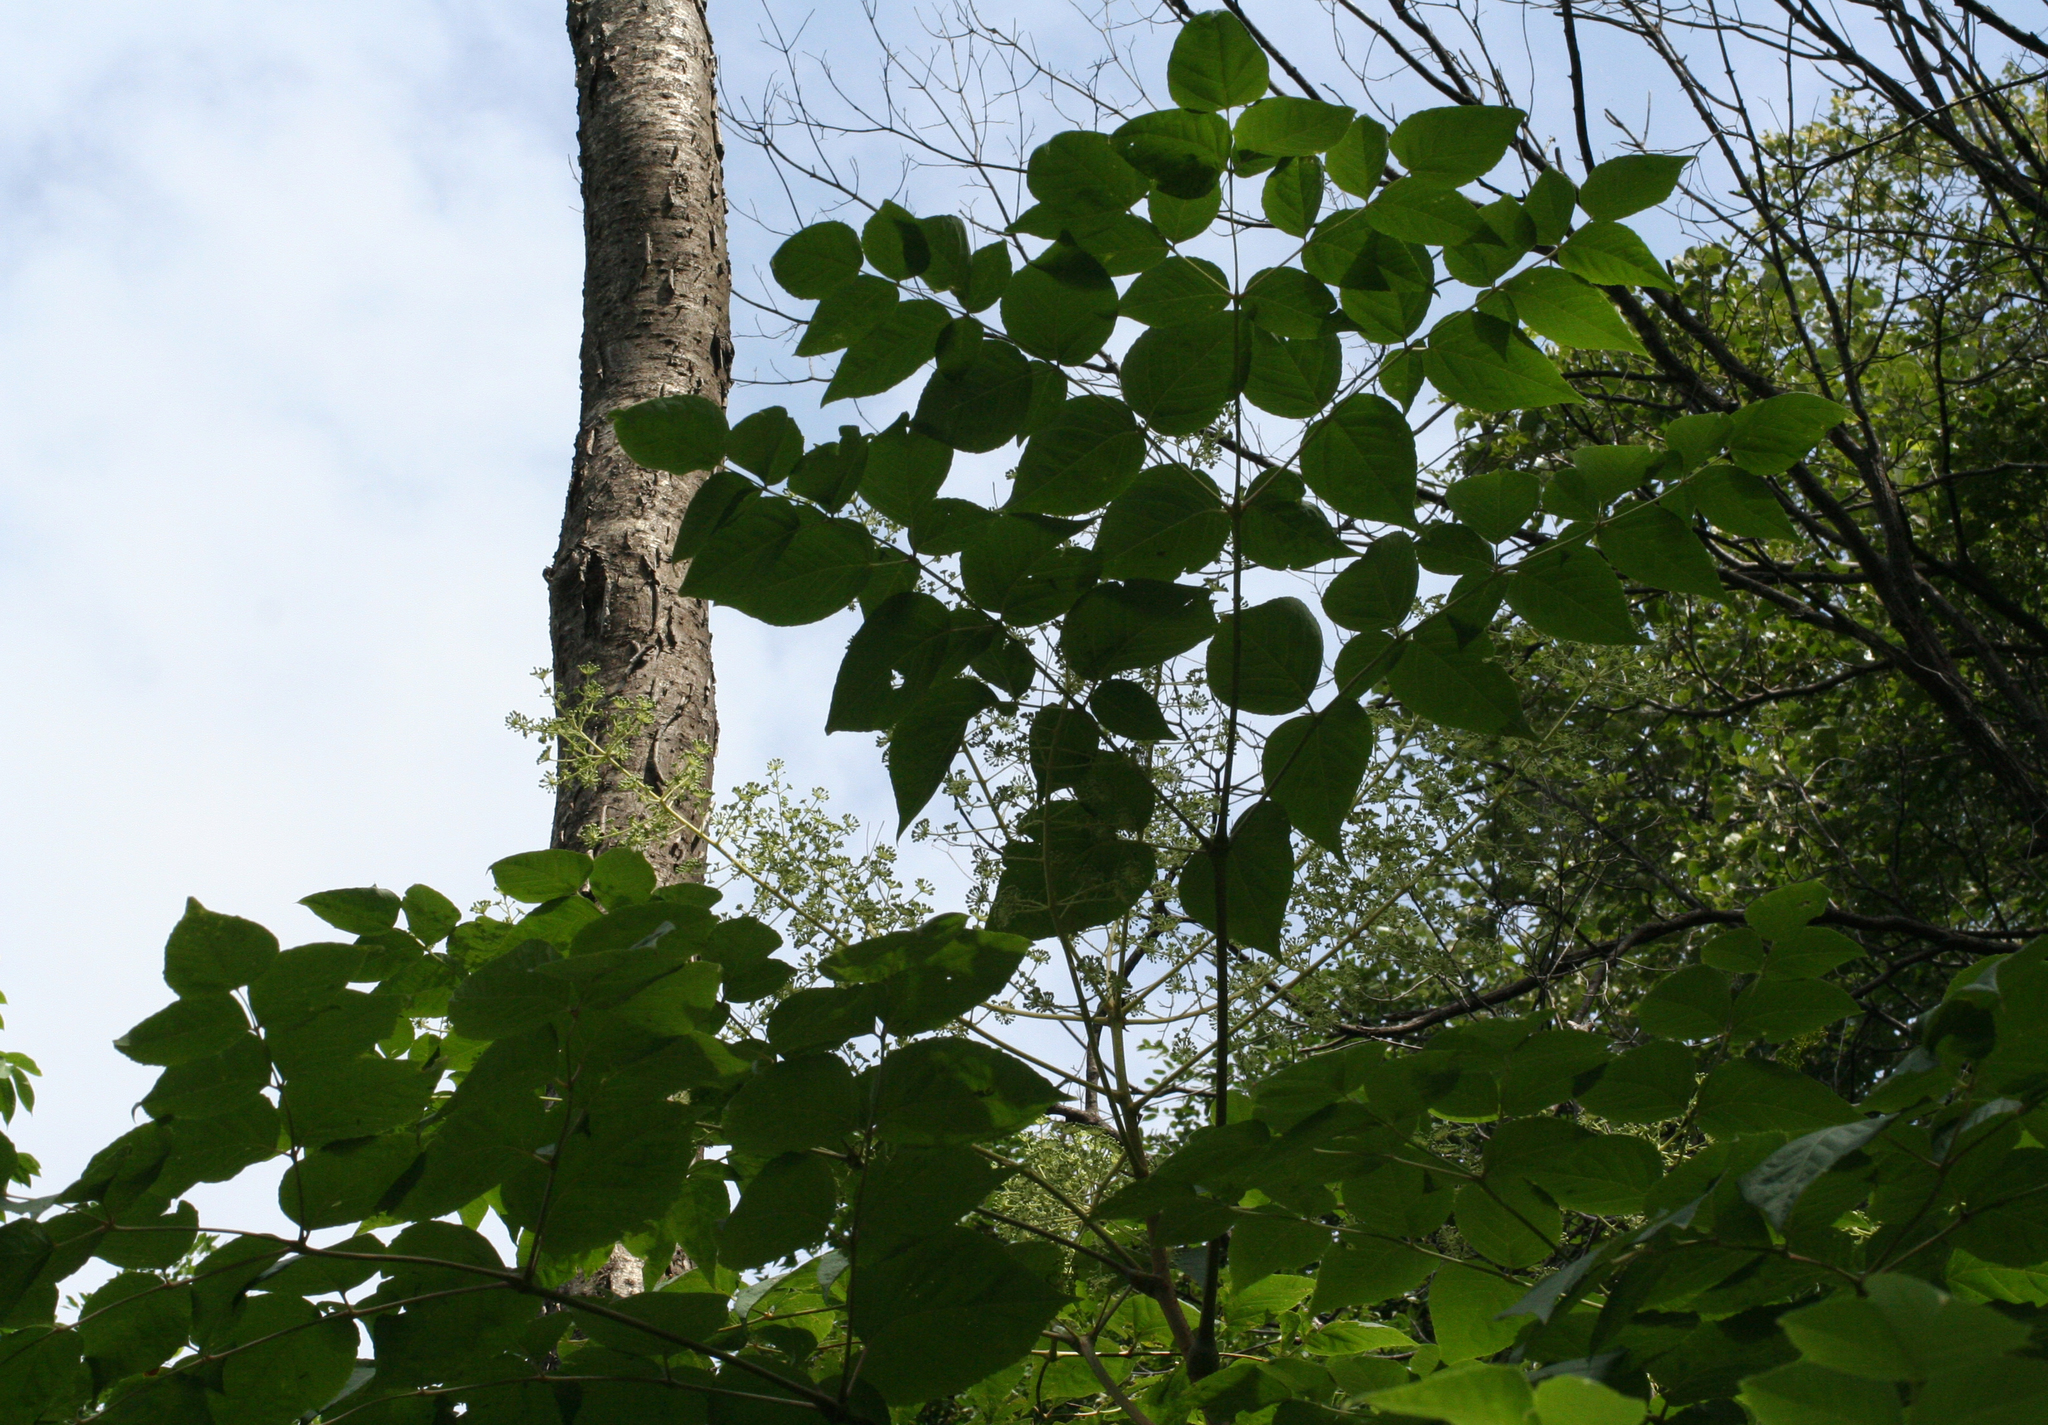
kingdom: Plantae
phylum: Tracheophyta
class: Magnoliopsida
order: Apiales
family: Araliaceae
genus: Aralia
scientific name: Aralia elata
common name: Japanese angelica-tree
